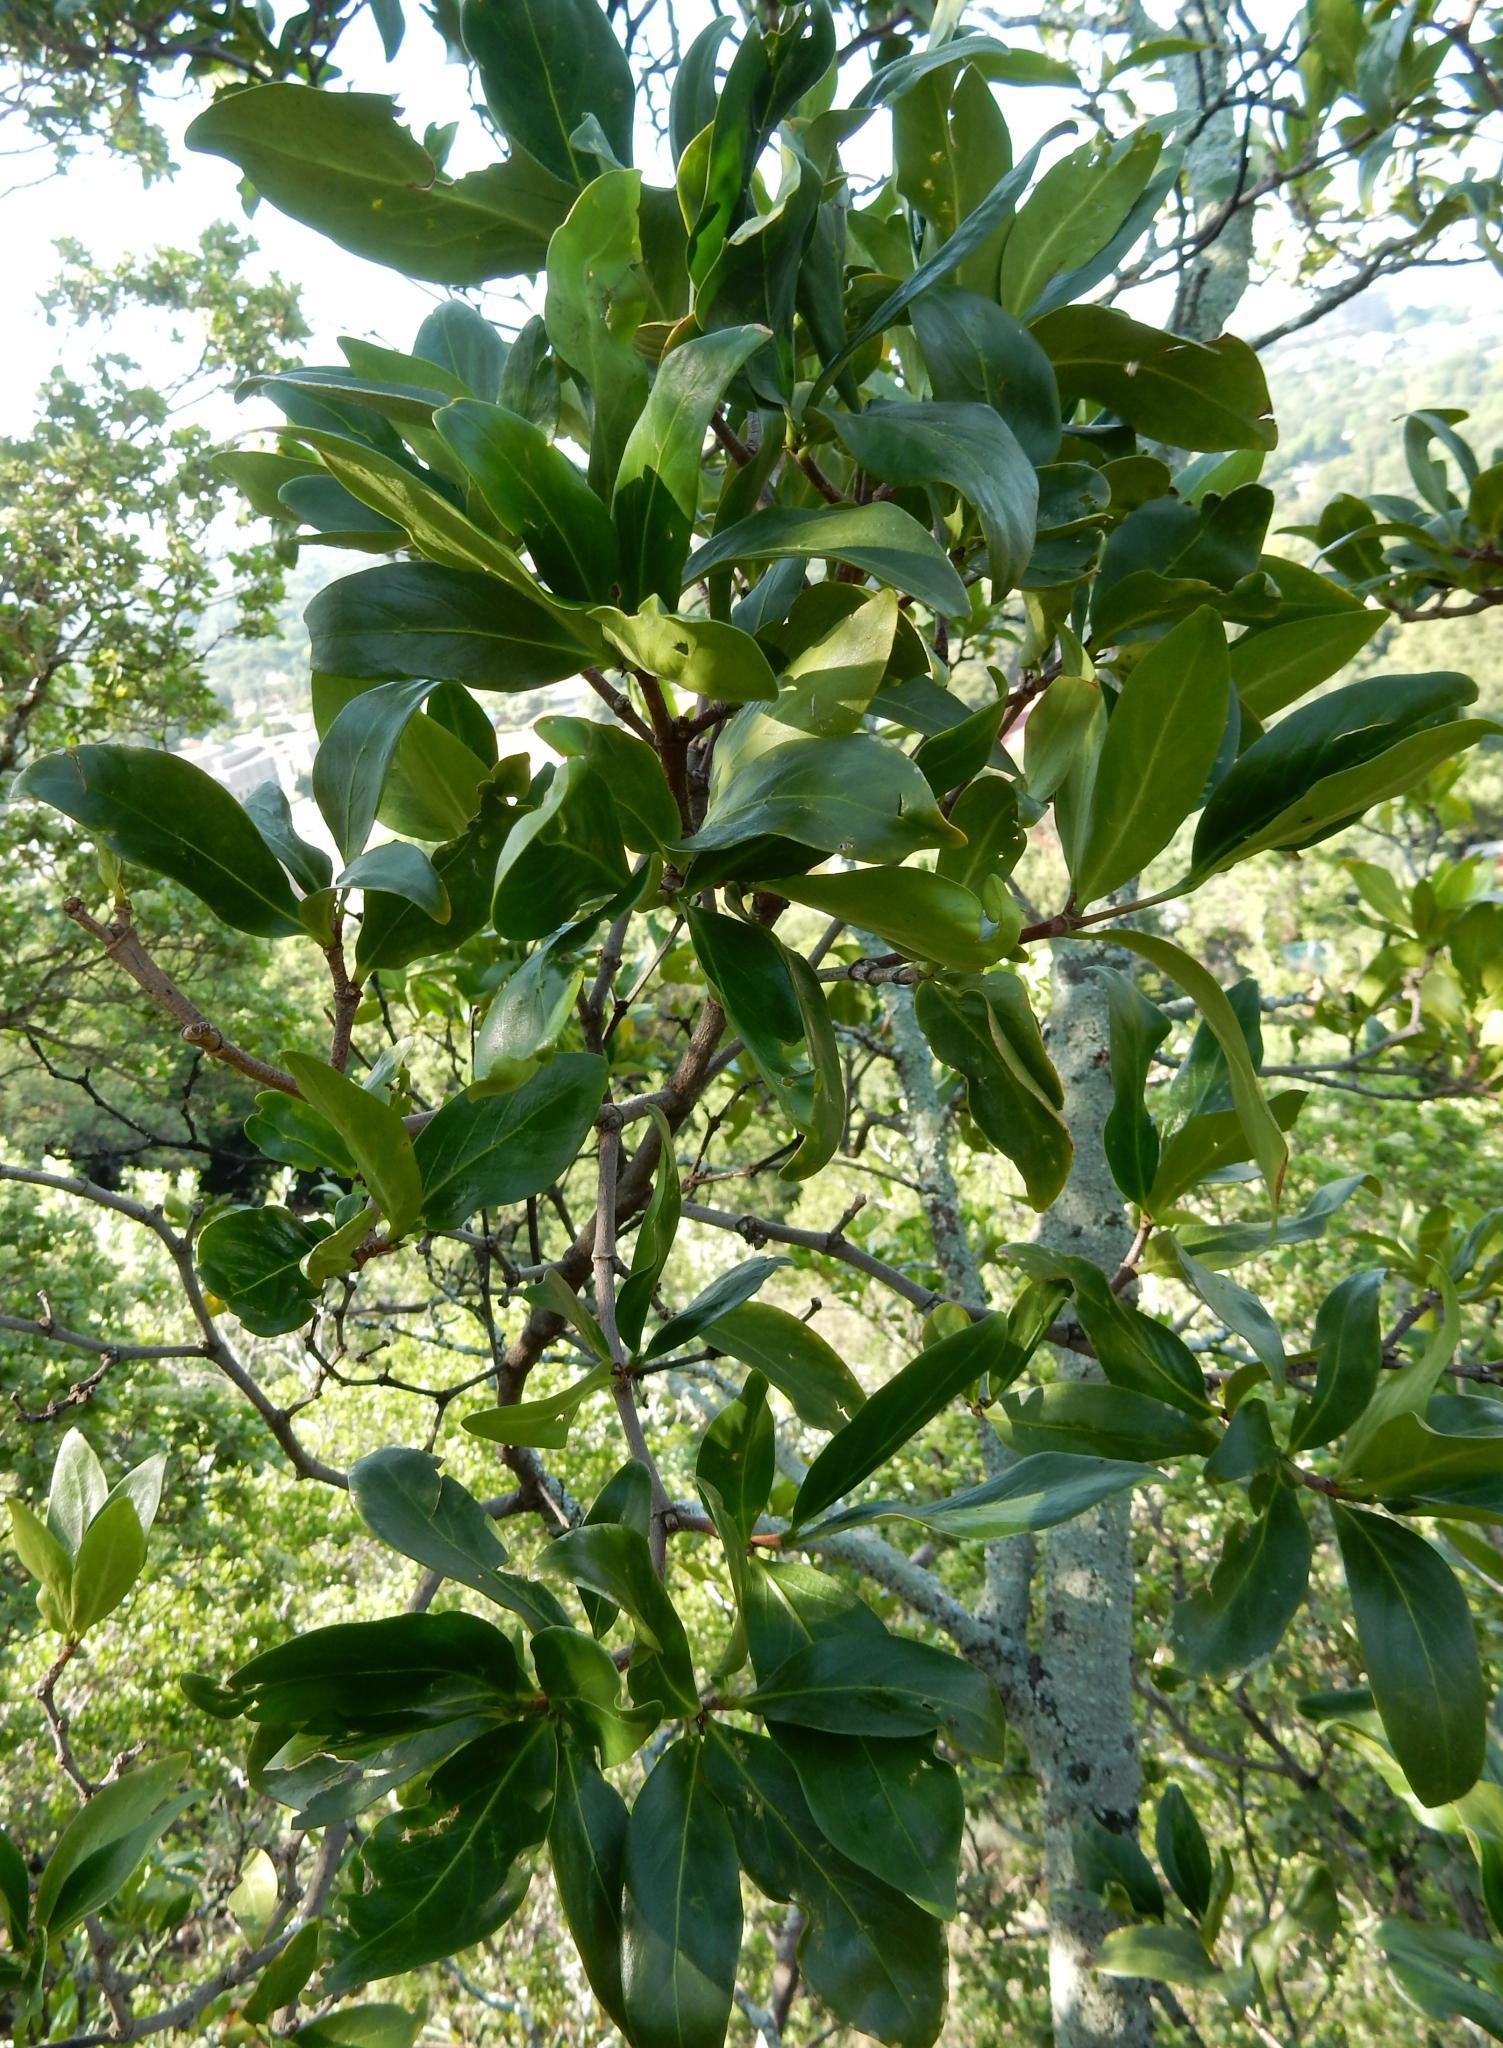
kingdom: Plantae
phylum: Tracheophyta
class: Magnoliopsida
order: Gentianales
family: Rubiaceae
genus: Rothmannia
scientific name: Rothmannia capensis
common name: Cape gardenia
